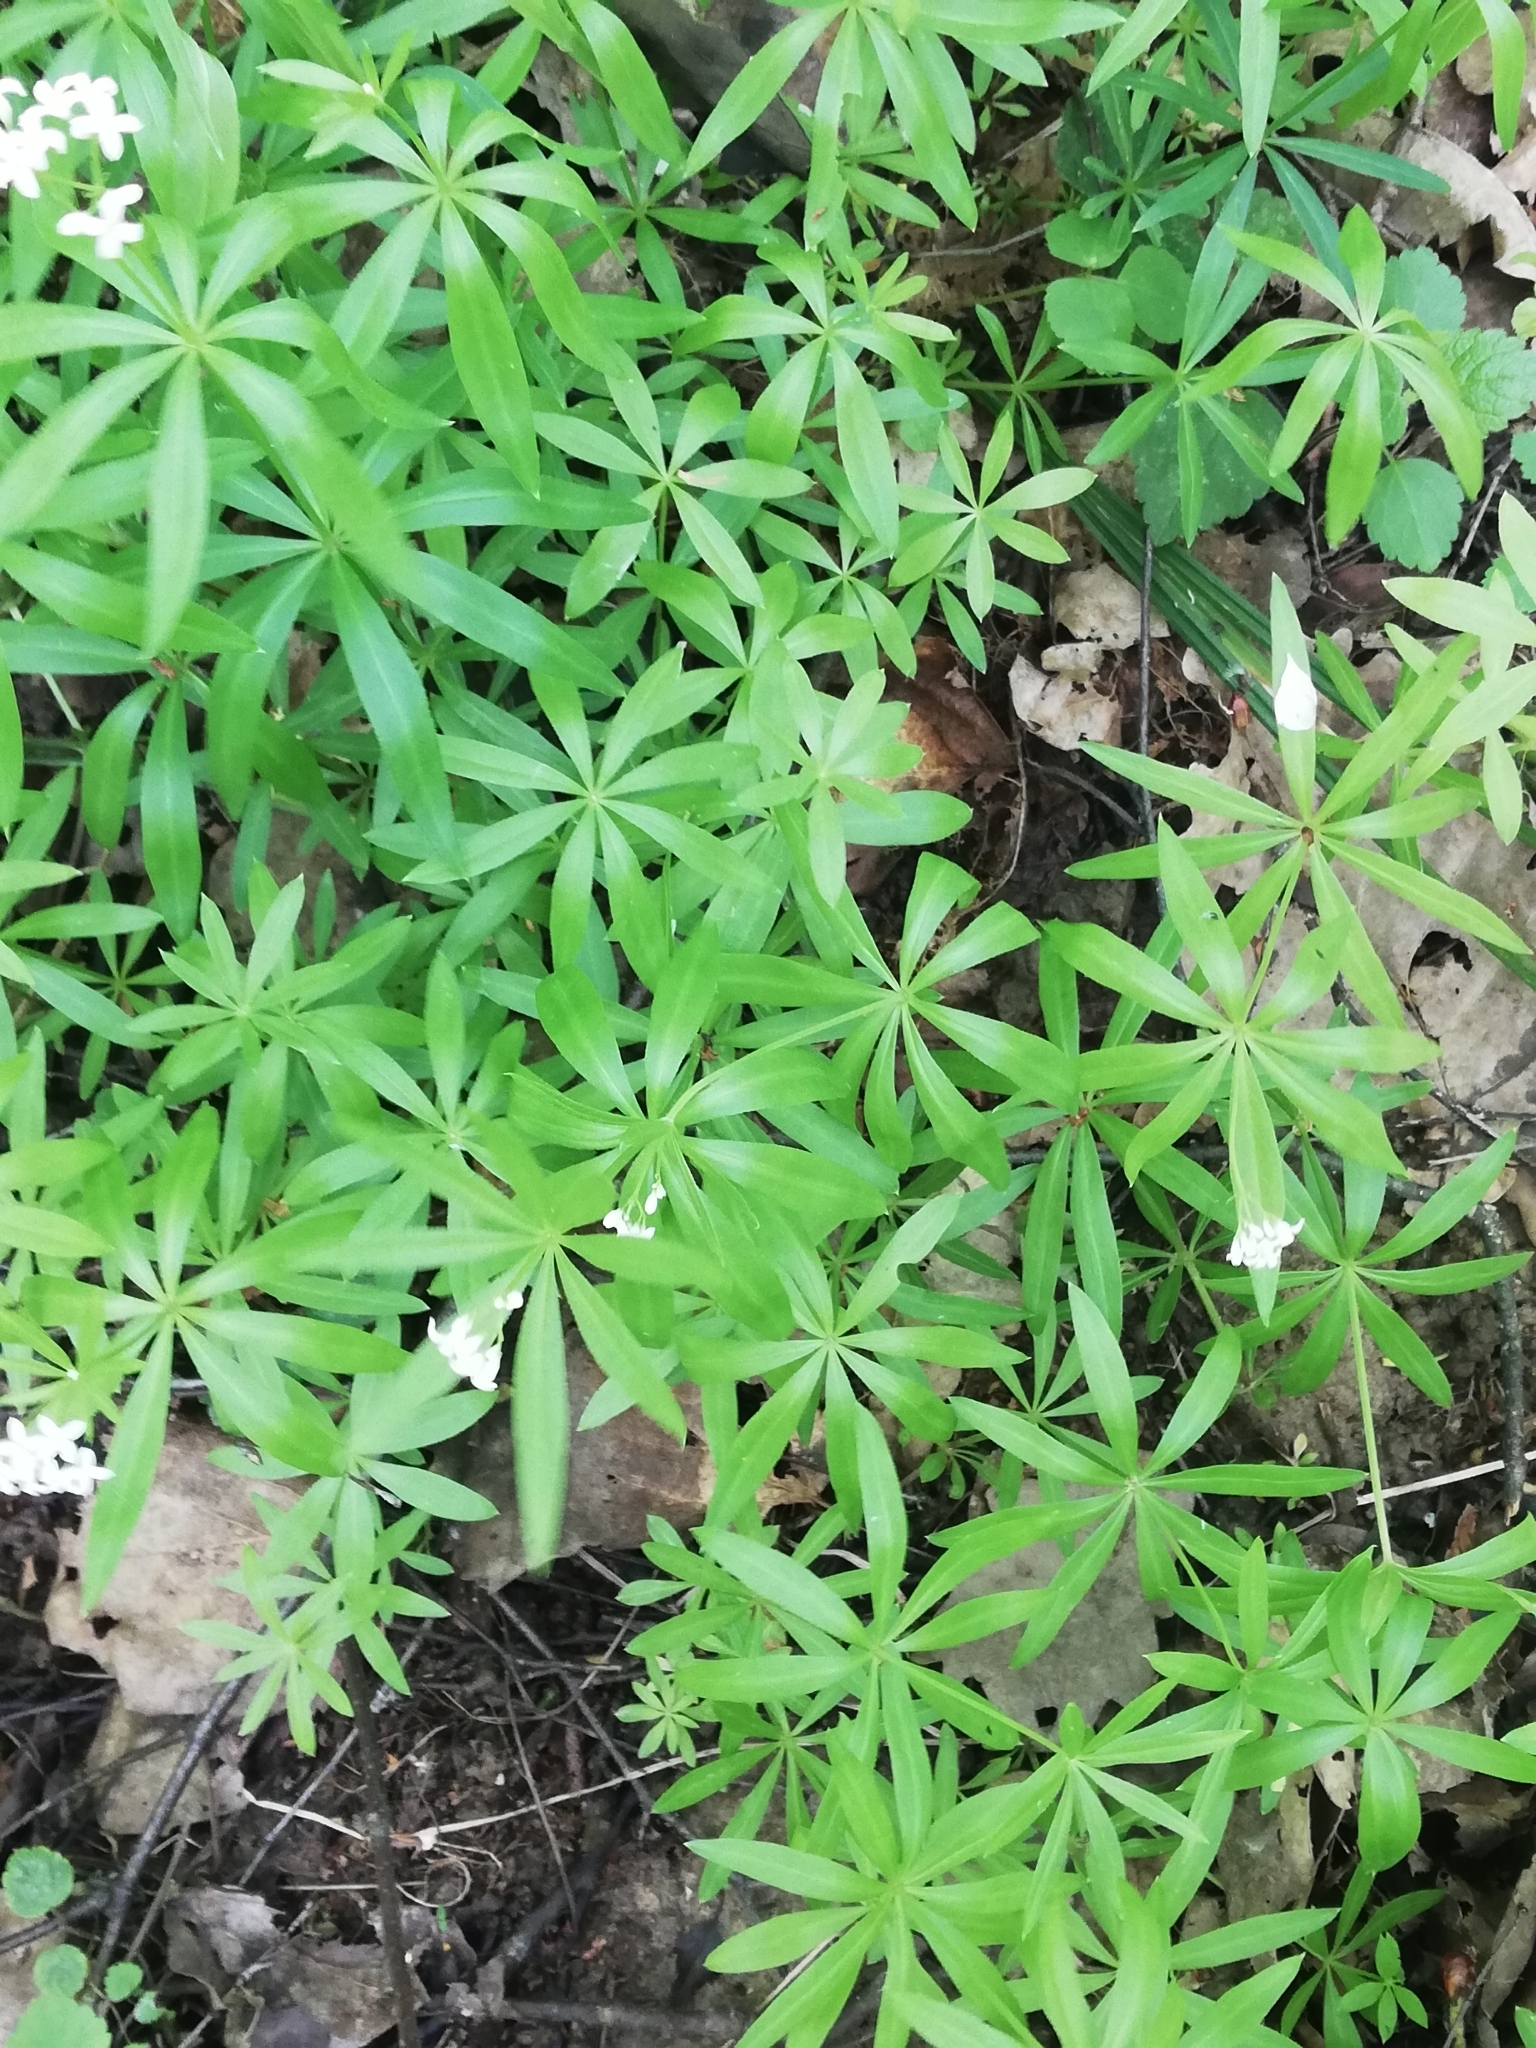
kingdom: Plantae
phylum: Tracheophyta
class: Magnoliopsida
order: Gentianales
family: Rubiaceae
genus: Galium
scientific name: Galium odoratum
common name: Sweet woodruff
